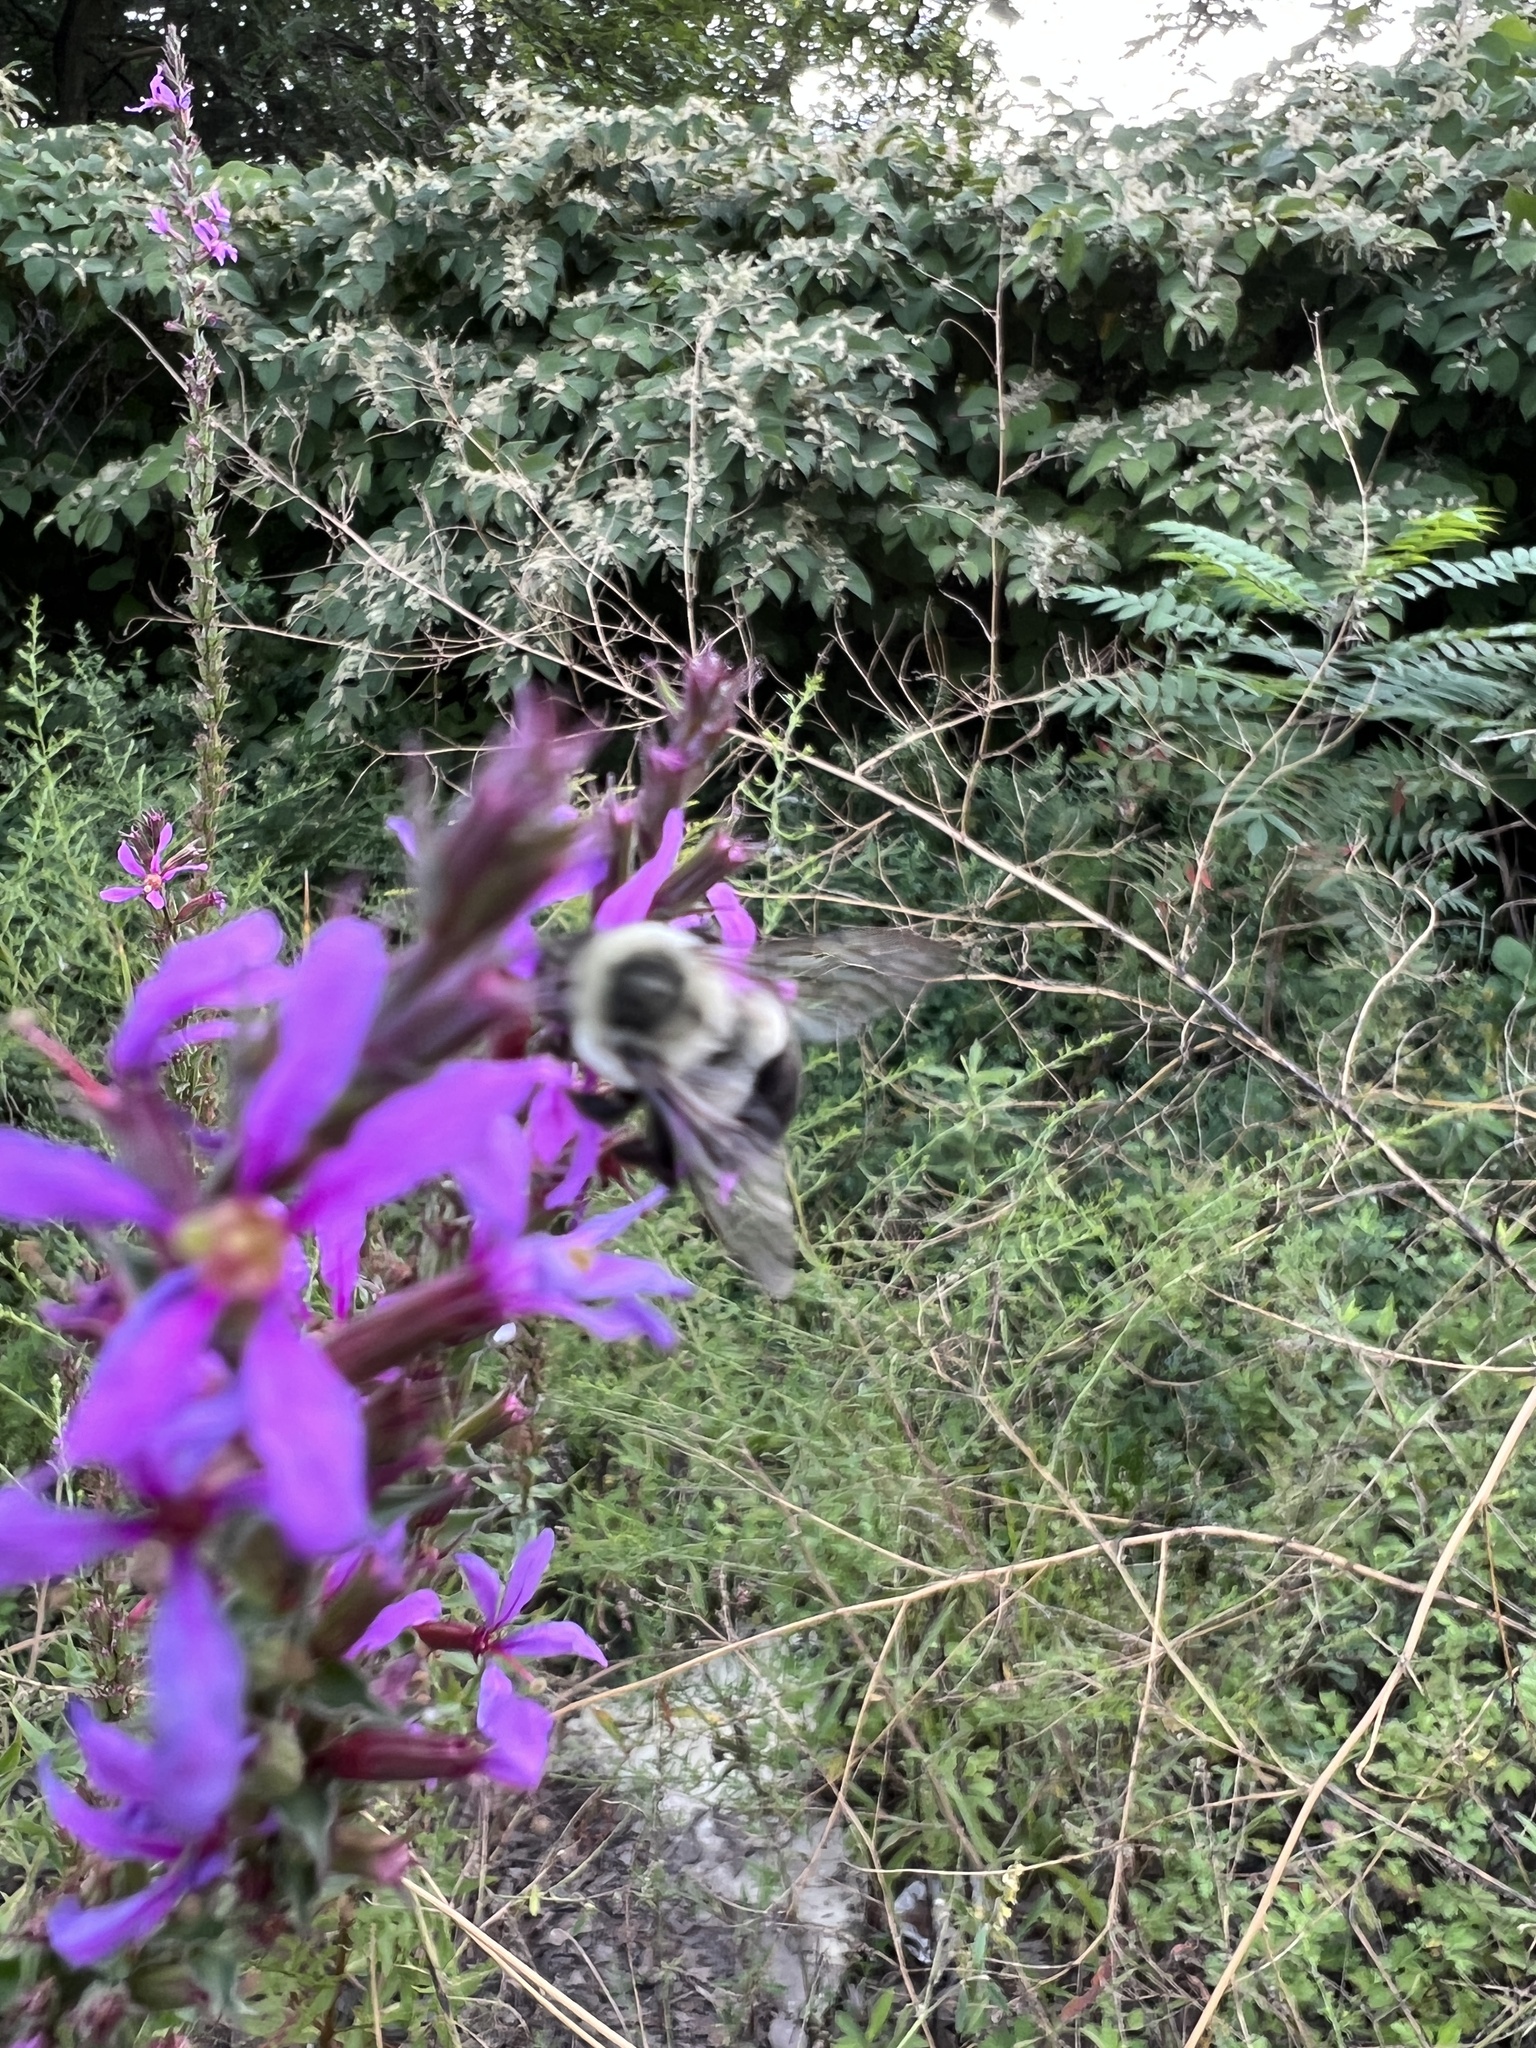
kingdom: Animalia
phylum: Arthropoda
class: Insecta
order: Hymenoptera
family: Apidae
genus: Bombus
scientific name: Bombus impatiens
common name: Common eastern bumble bee
